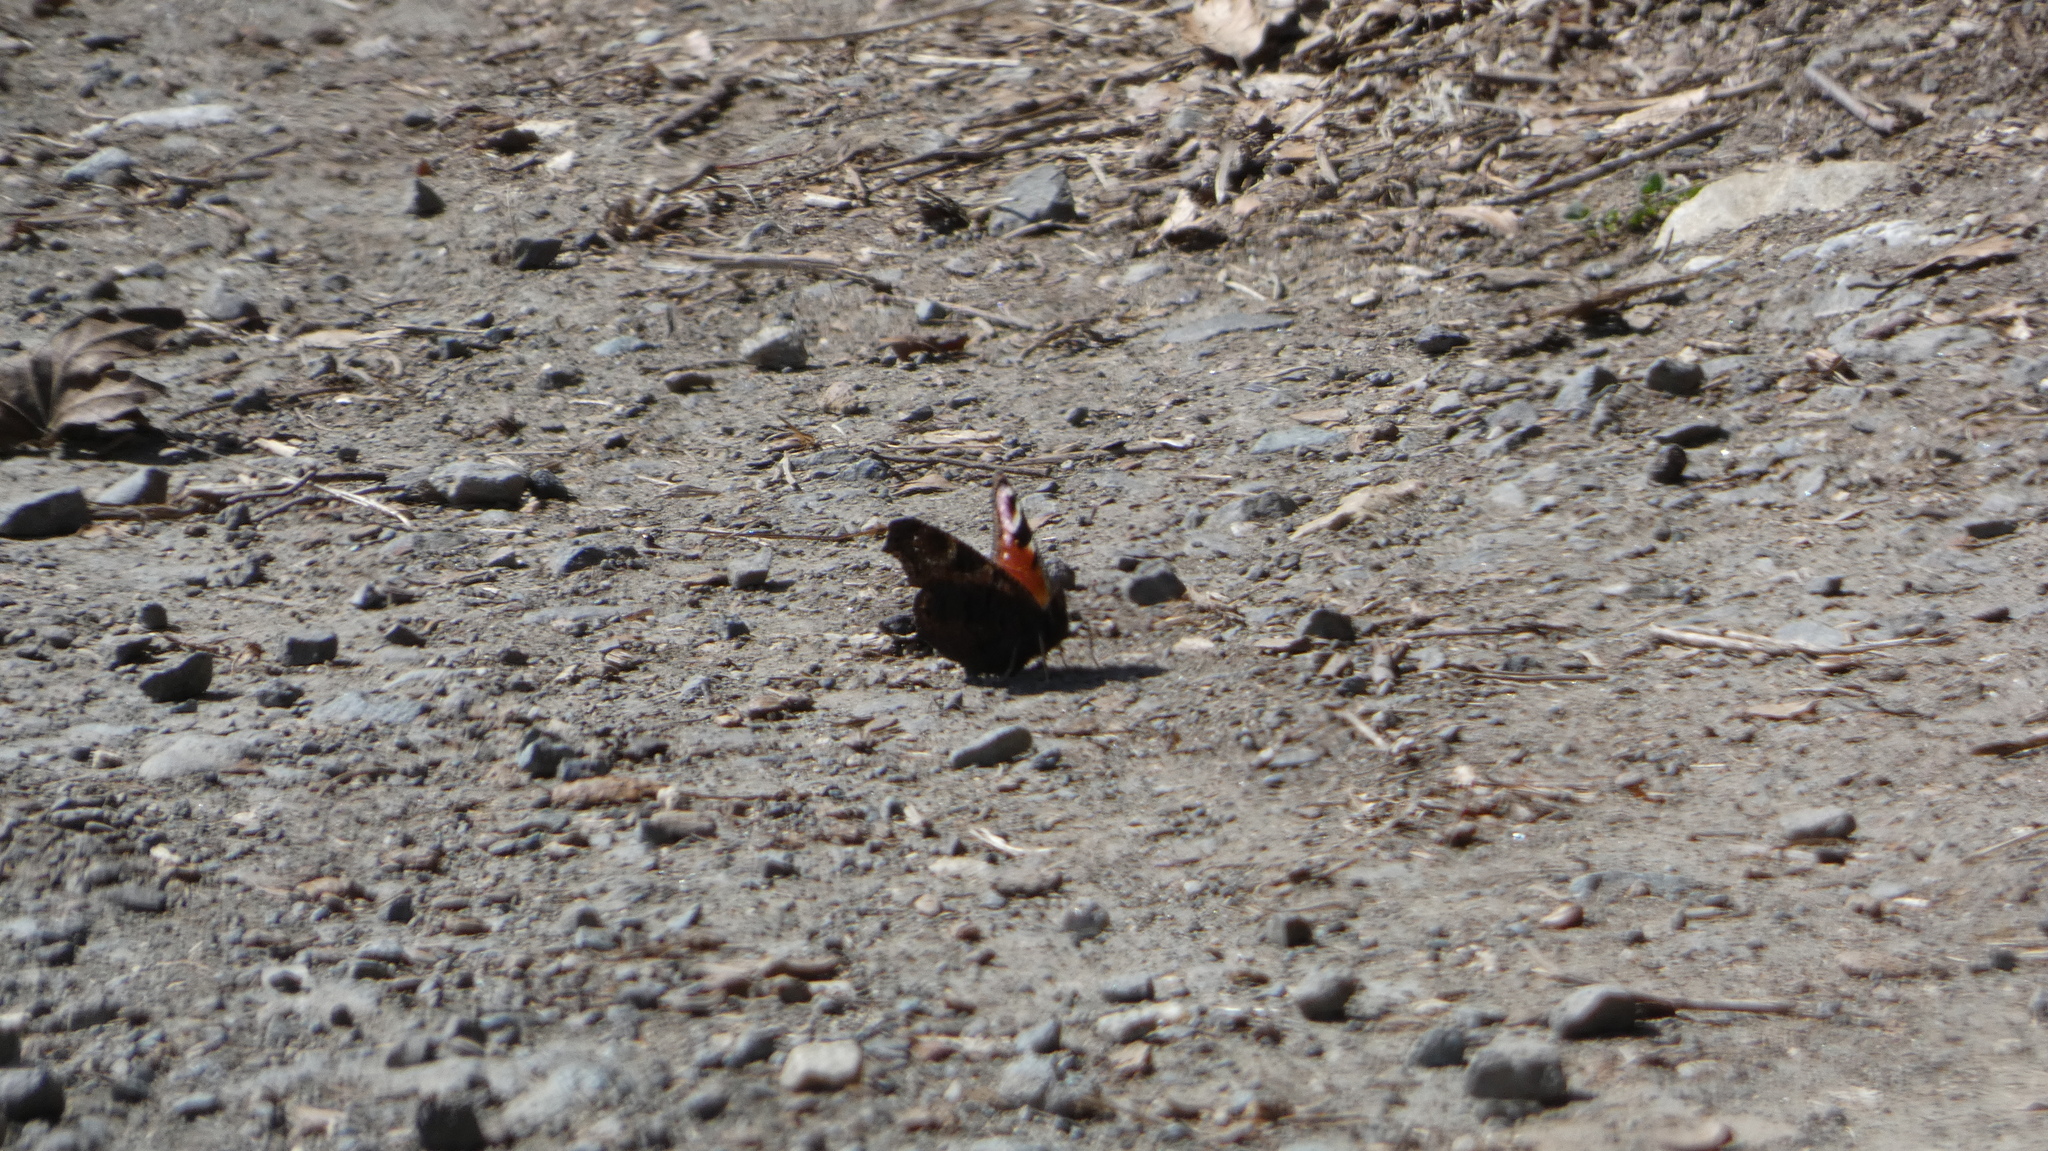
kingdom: Animalia
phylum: Arthropoda
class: Insecta
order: Lepidoptera
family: Nymphalidae
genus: Aglais
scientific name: Aglais io
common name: Peacock
